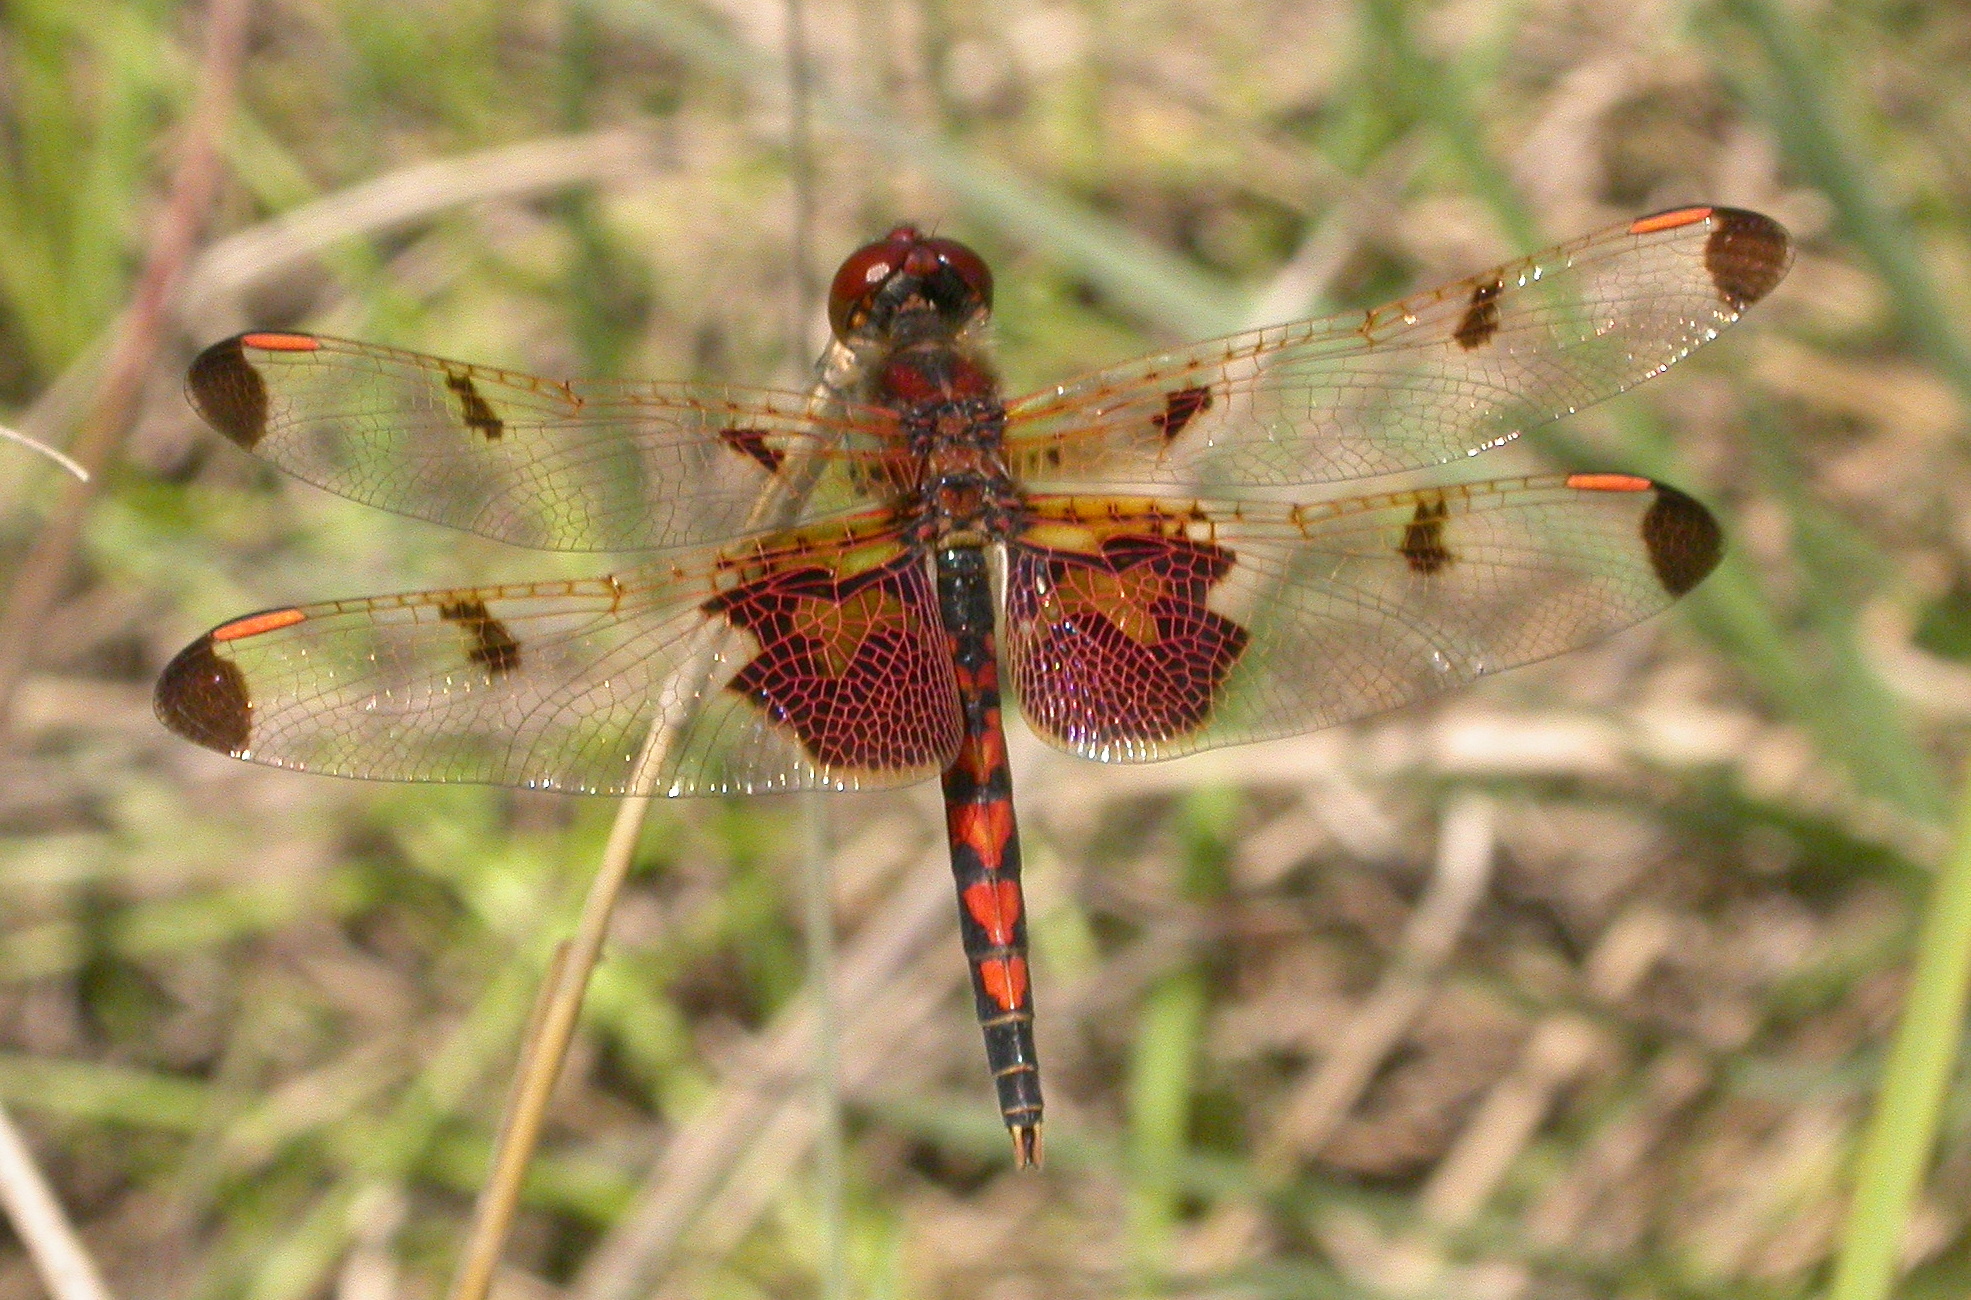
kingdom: Animalia
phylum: Arthropoda
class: Insecta
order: Odonata
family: Libellulidae
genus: Celithemis
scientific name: Celithemis elisa
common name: Calico pennant
